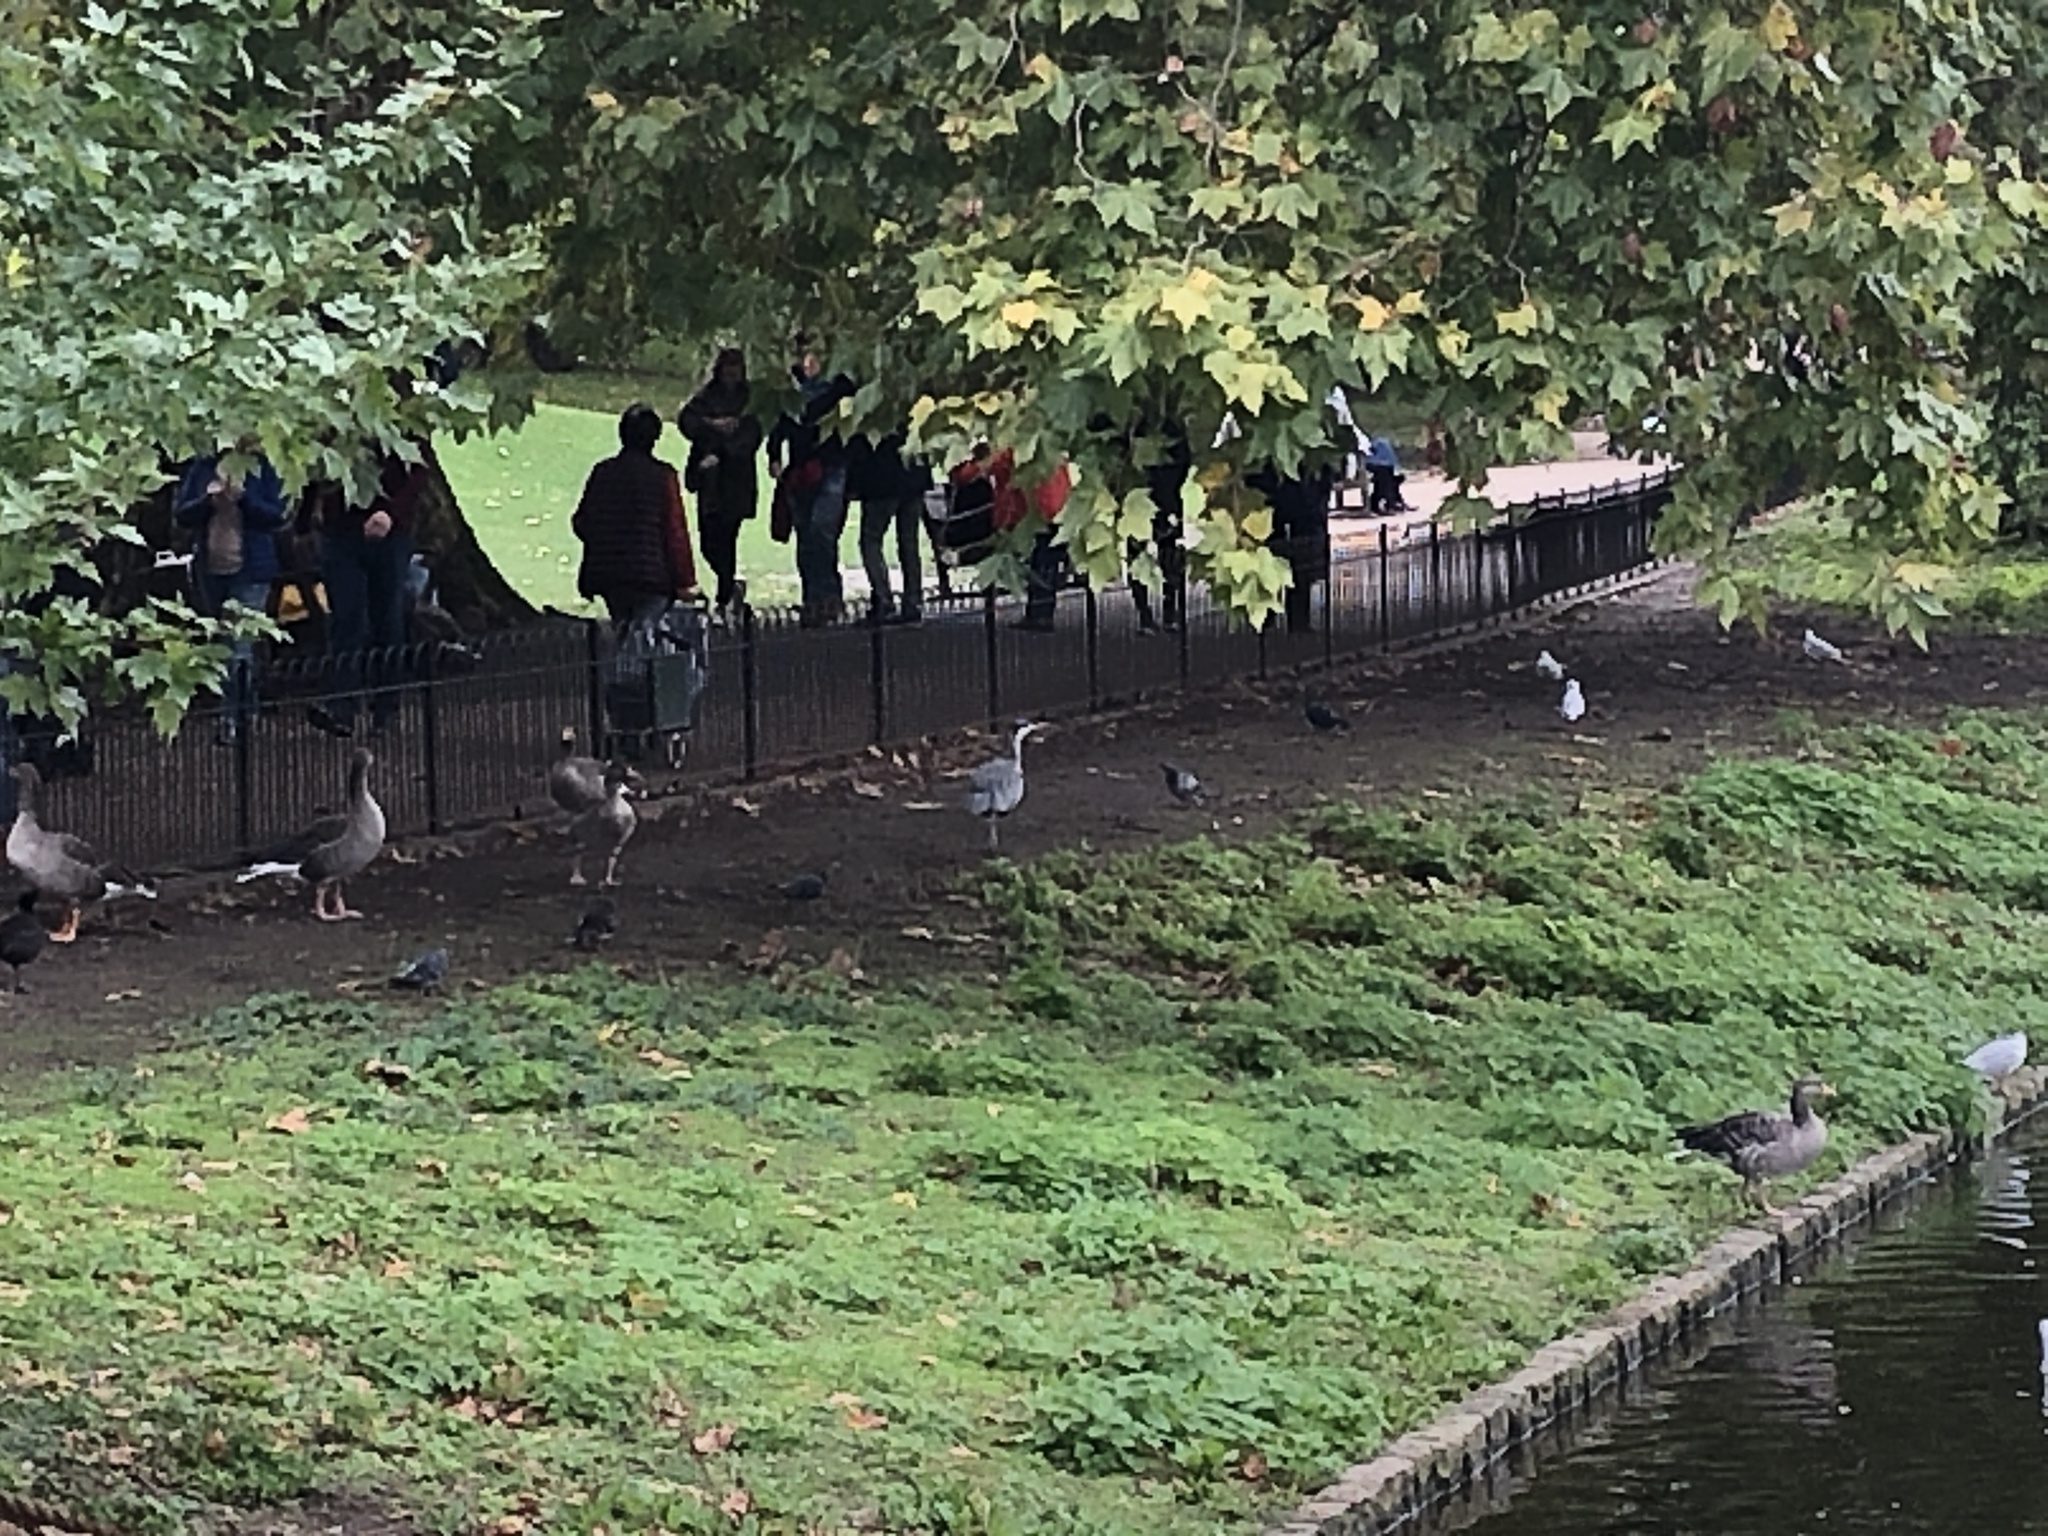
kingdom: Animalia
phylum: Chordata
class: Aves
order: Pelecaniformes
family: Ardeidae
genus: Ardea
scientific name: Ardea cinerea
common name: Grey heron
